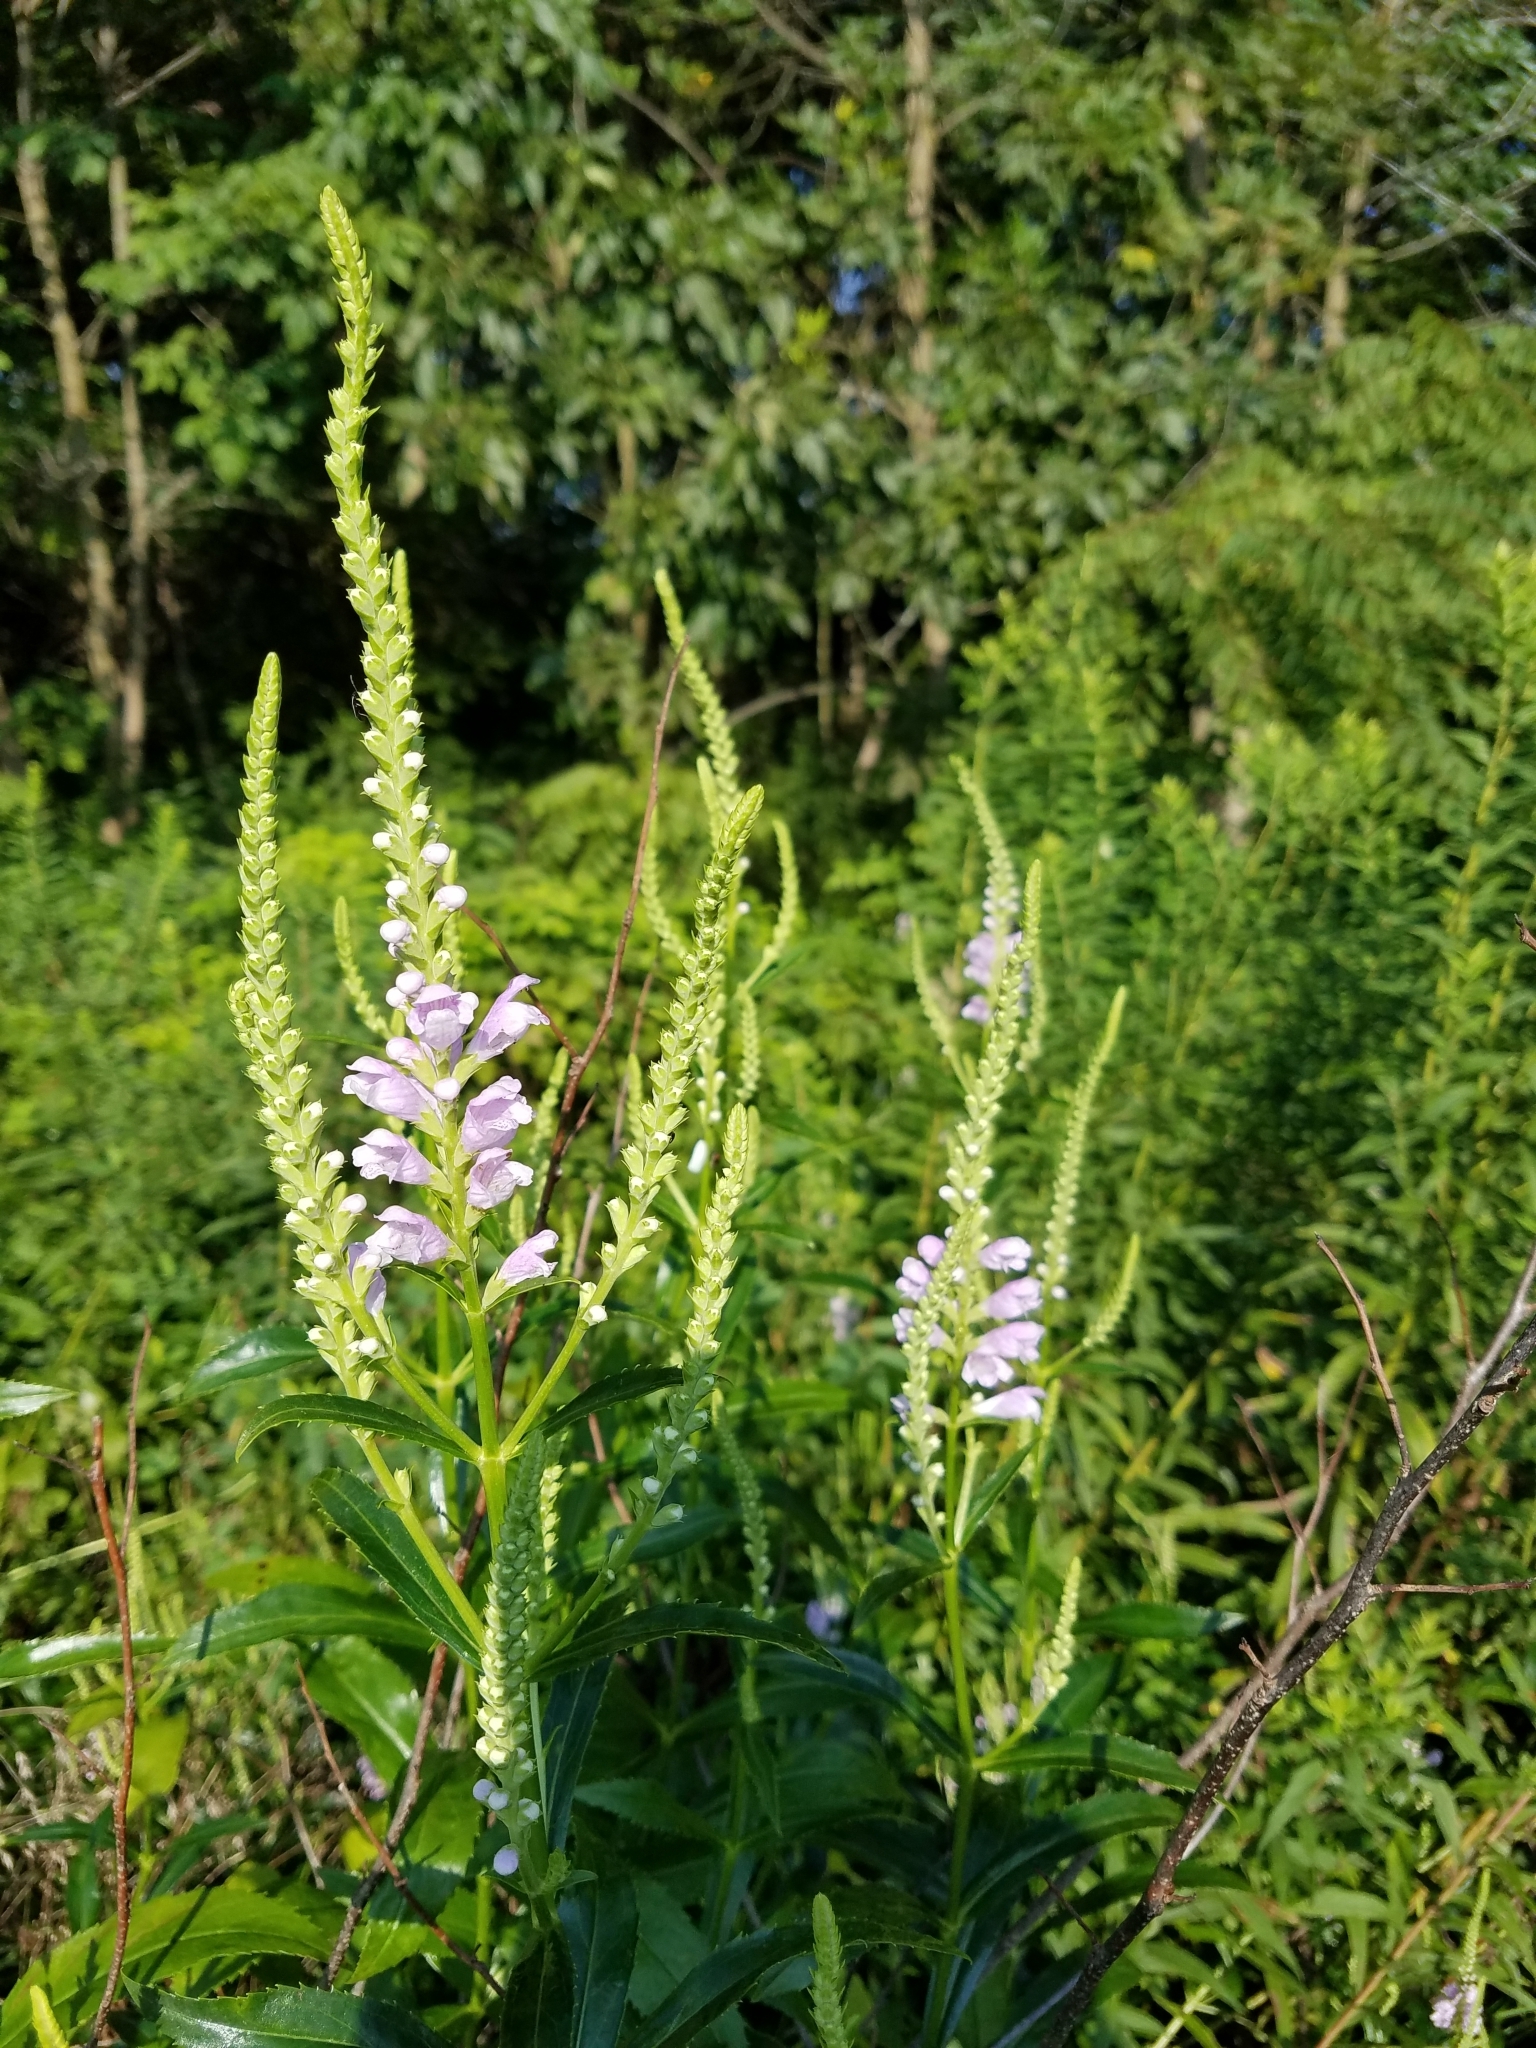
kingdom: Plantae
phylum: Tracheophyta
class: Magnoliopsida
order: Lamiales
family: Lamiaceae
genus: Physostegia
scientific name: Physostegia virginiana
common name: Obedient-plant
